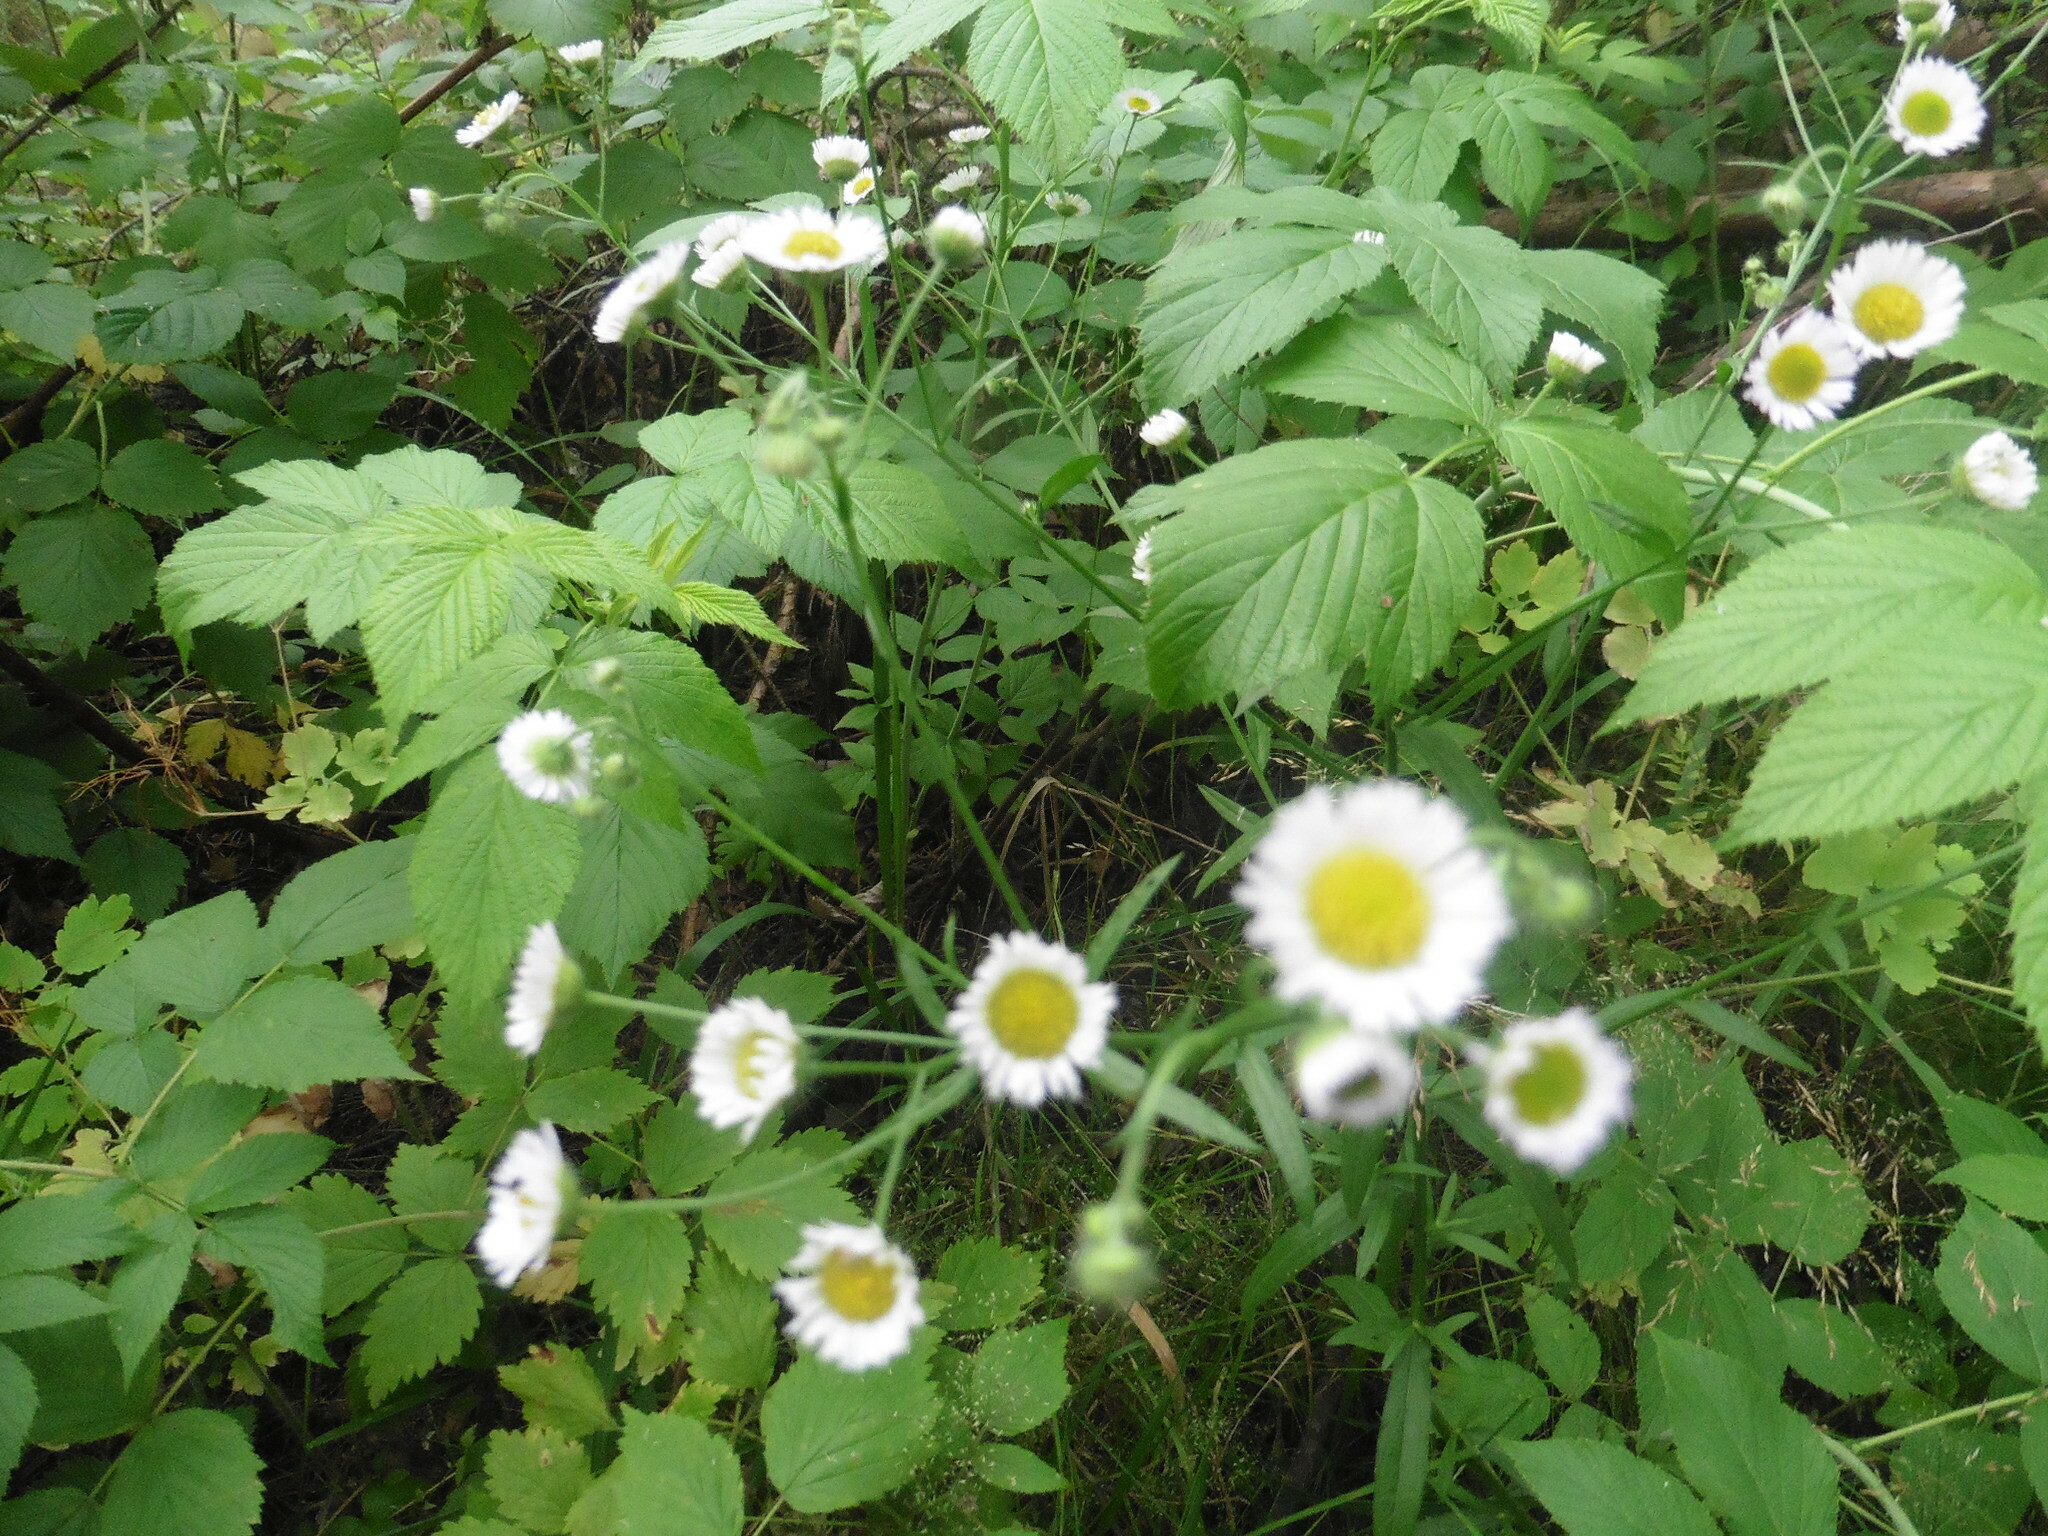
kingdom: Plantae
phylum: Tracheophyta
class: Magnoliopsida
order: Asterales
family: Asteraceae
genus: Erigeron
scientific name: Erigeron strigosus
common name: Common eastern fleabane
